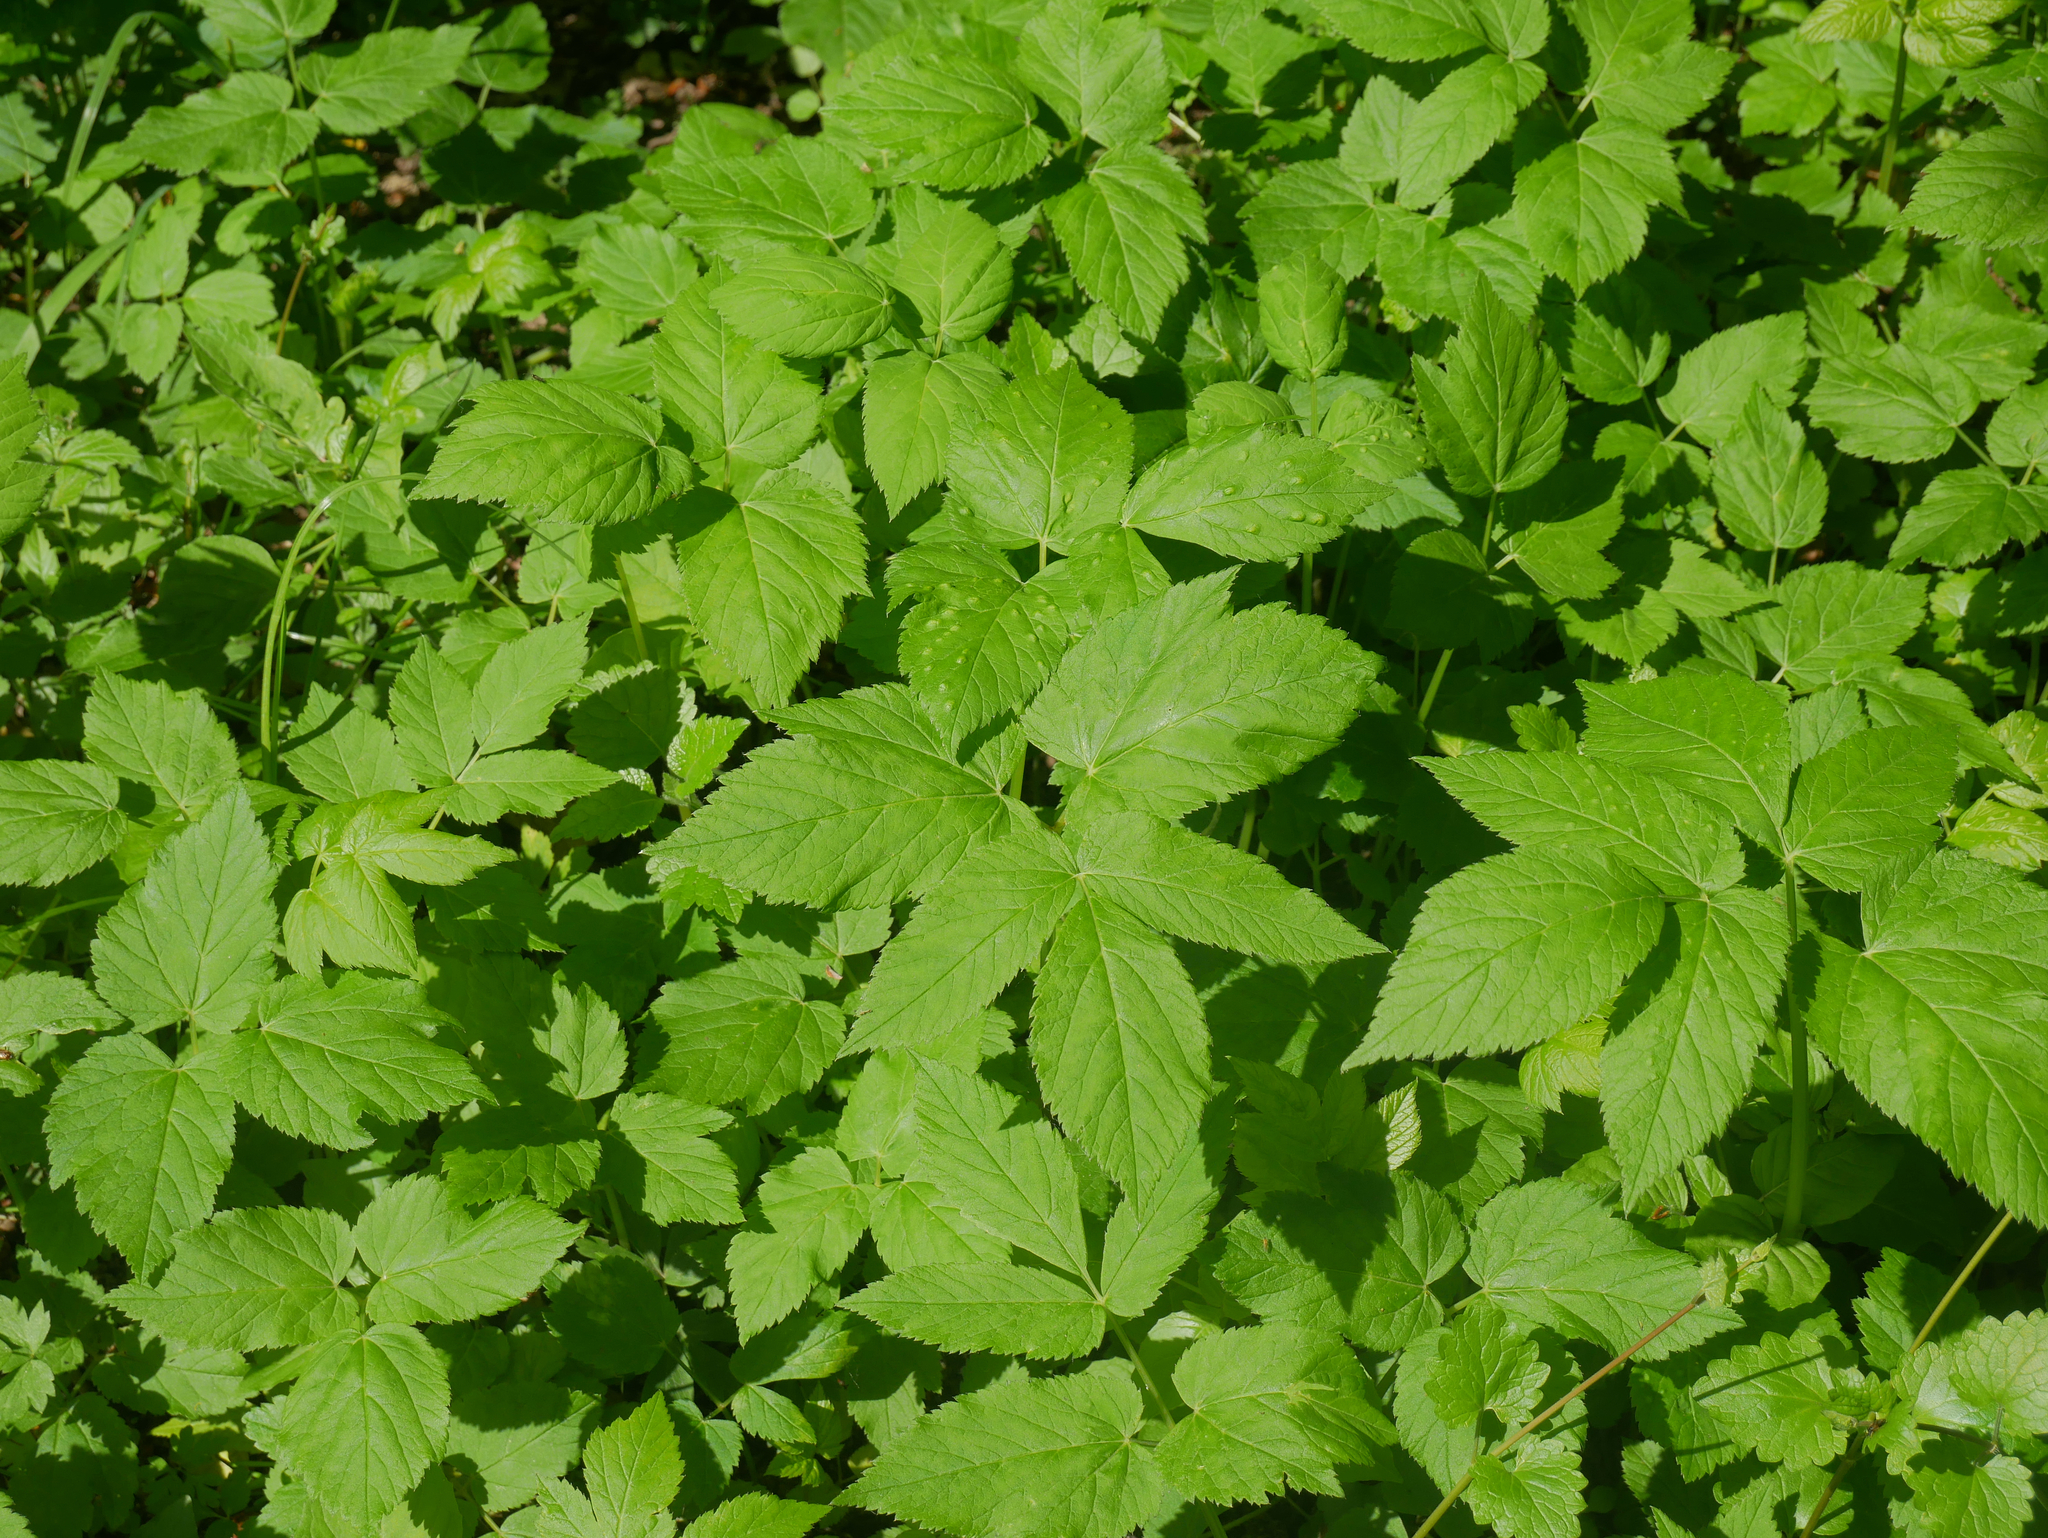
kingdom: Plantae
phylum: Tracheophyta
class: Magnoliopsida
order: Apiales
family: Apiaceae
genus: Aegopodium
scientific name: Aegopodium podagraria
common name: Ground-elder
